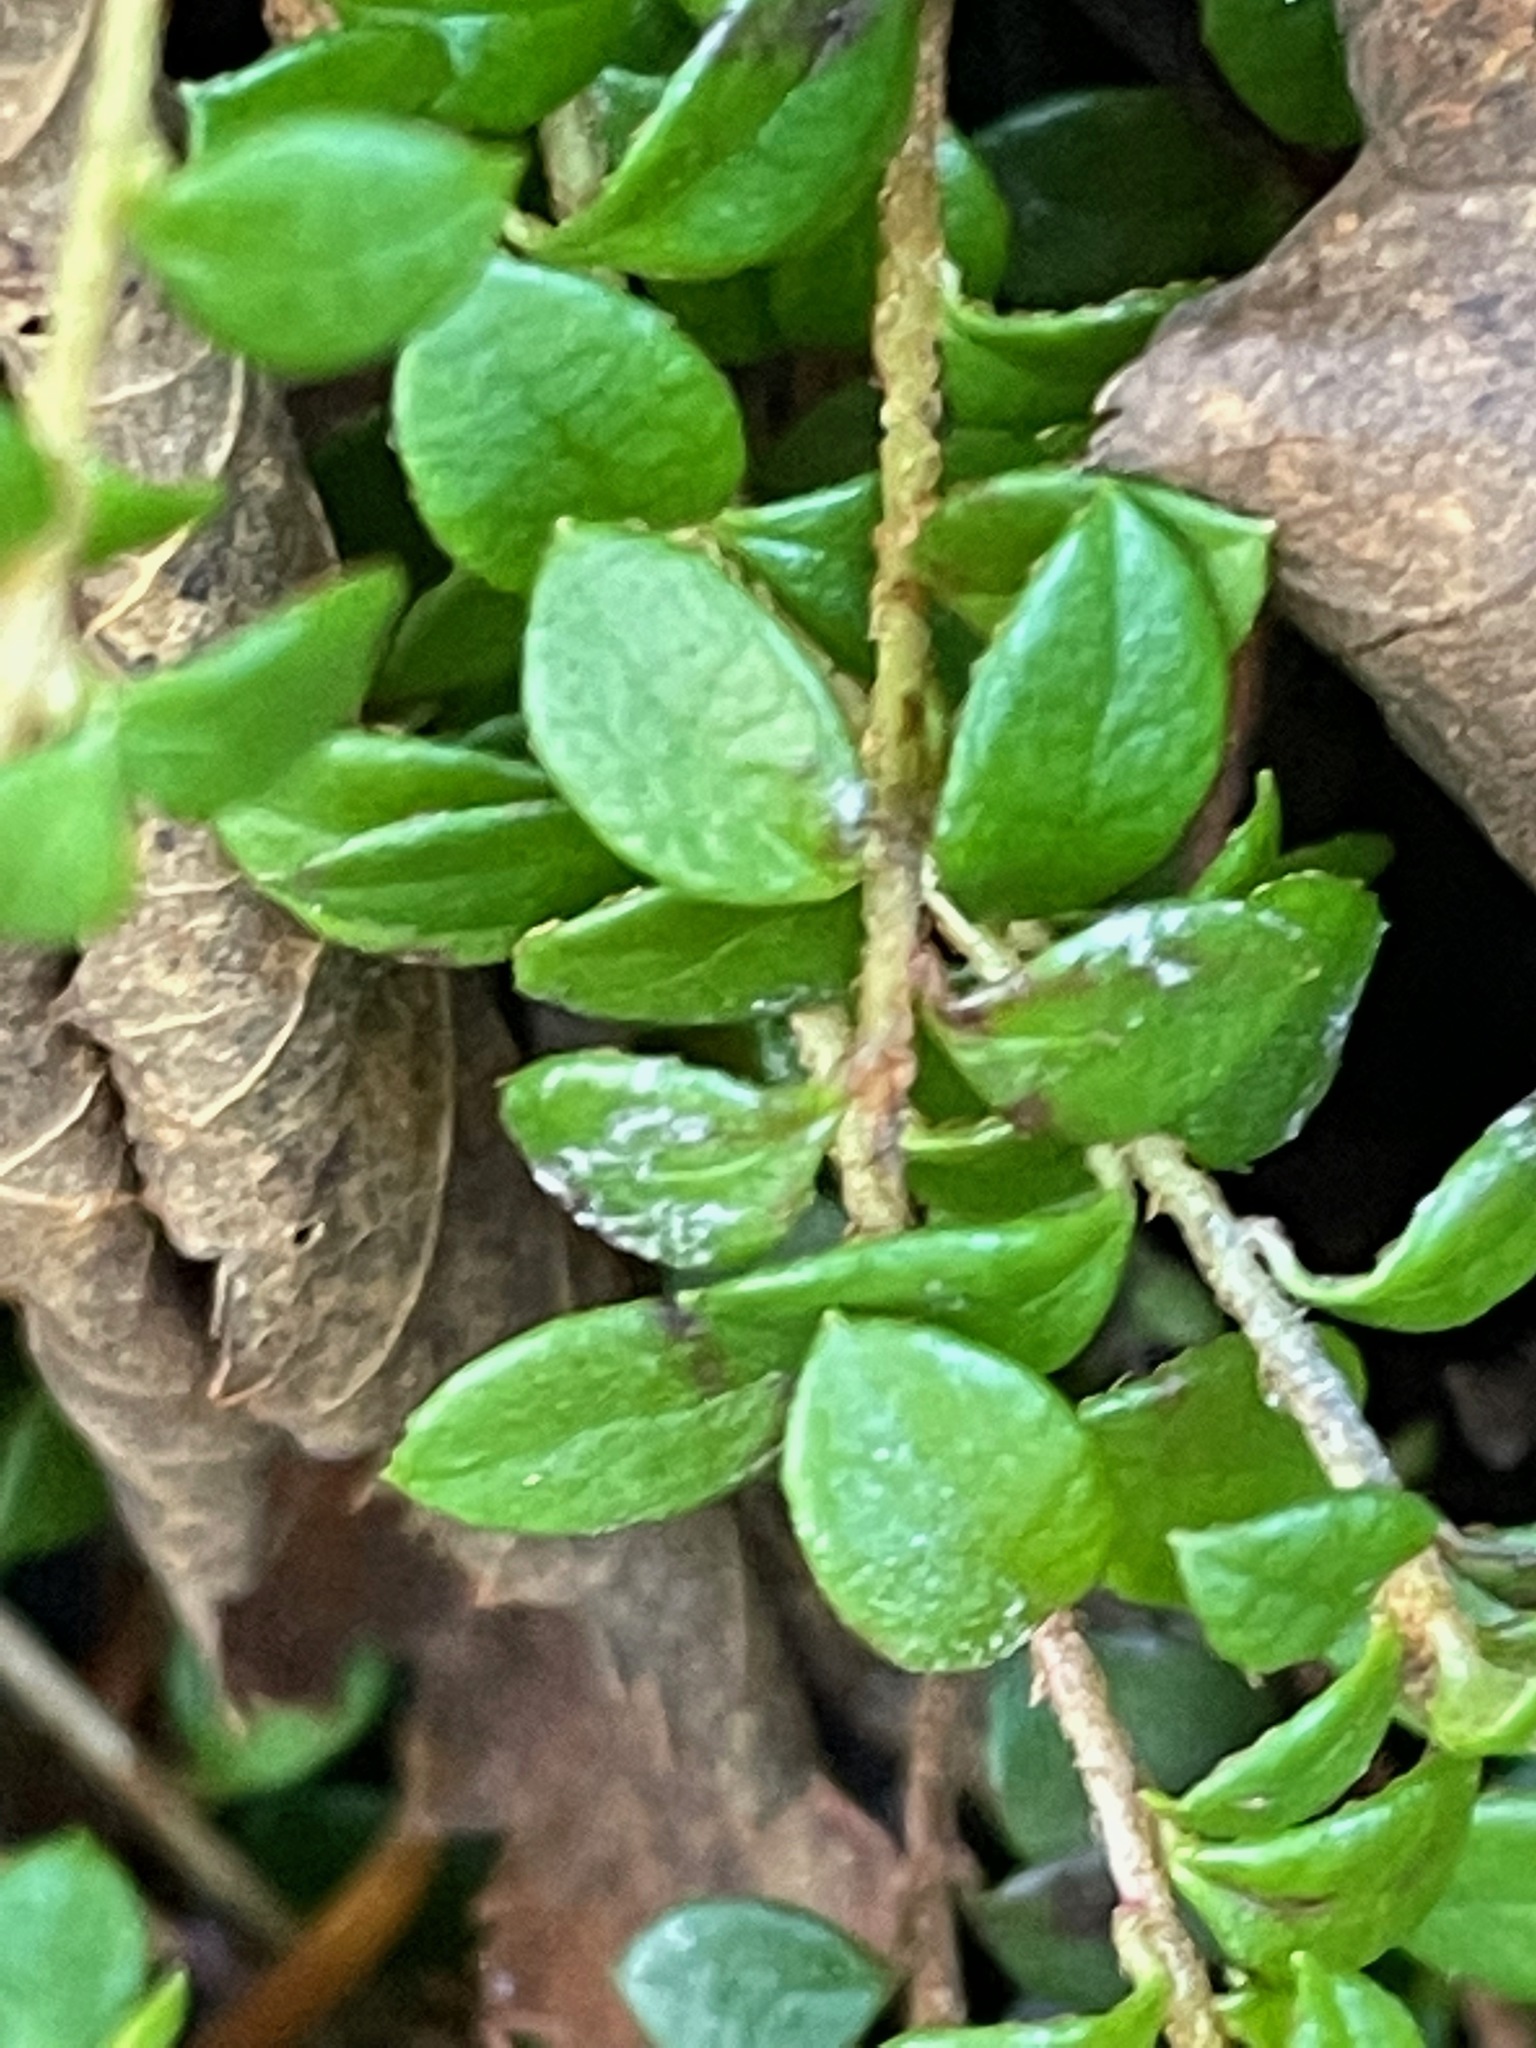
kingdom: Plantae
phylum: Tracheophyta
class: Magnoliopsida
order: Ericales
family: Ericaceae
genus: Gaultheria
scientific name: Gaultheria hispidula
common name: Cancer wintergreen
